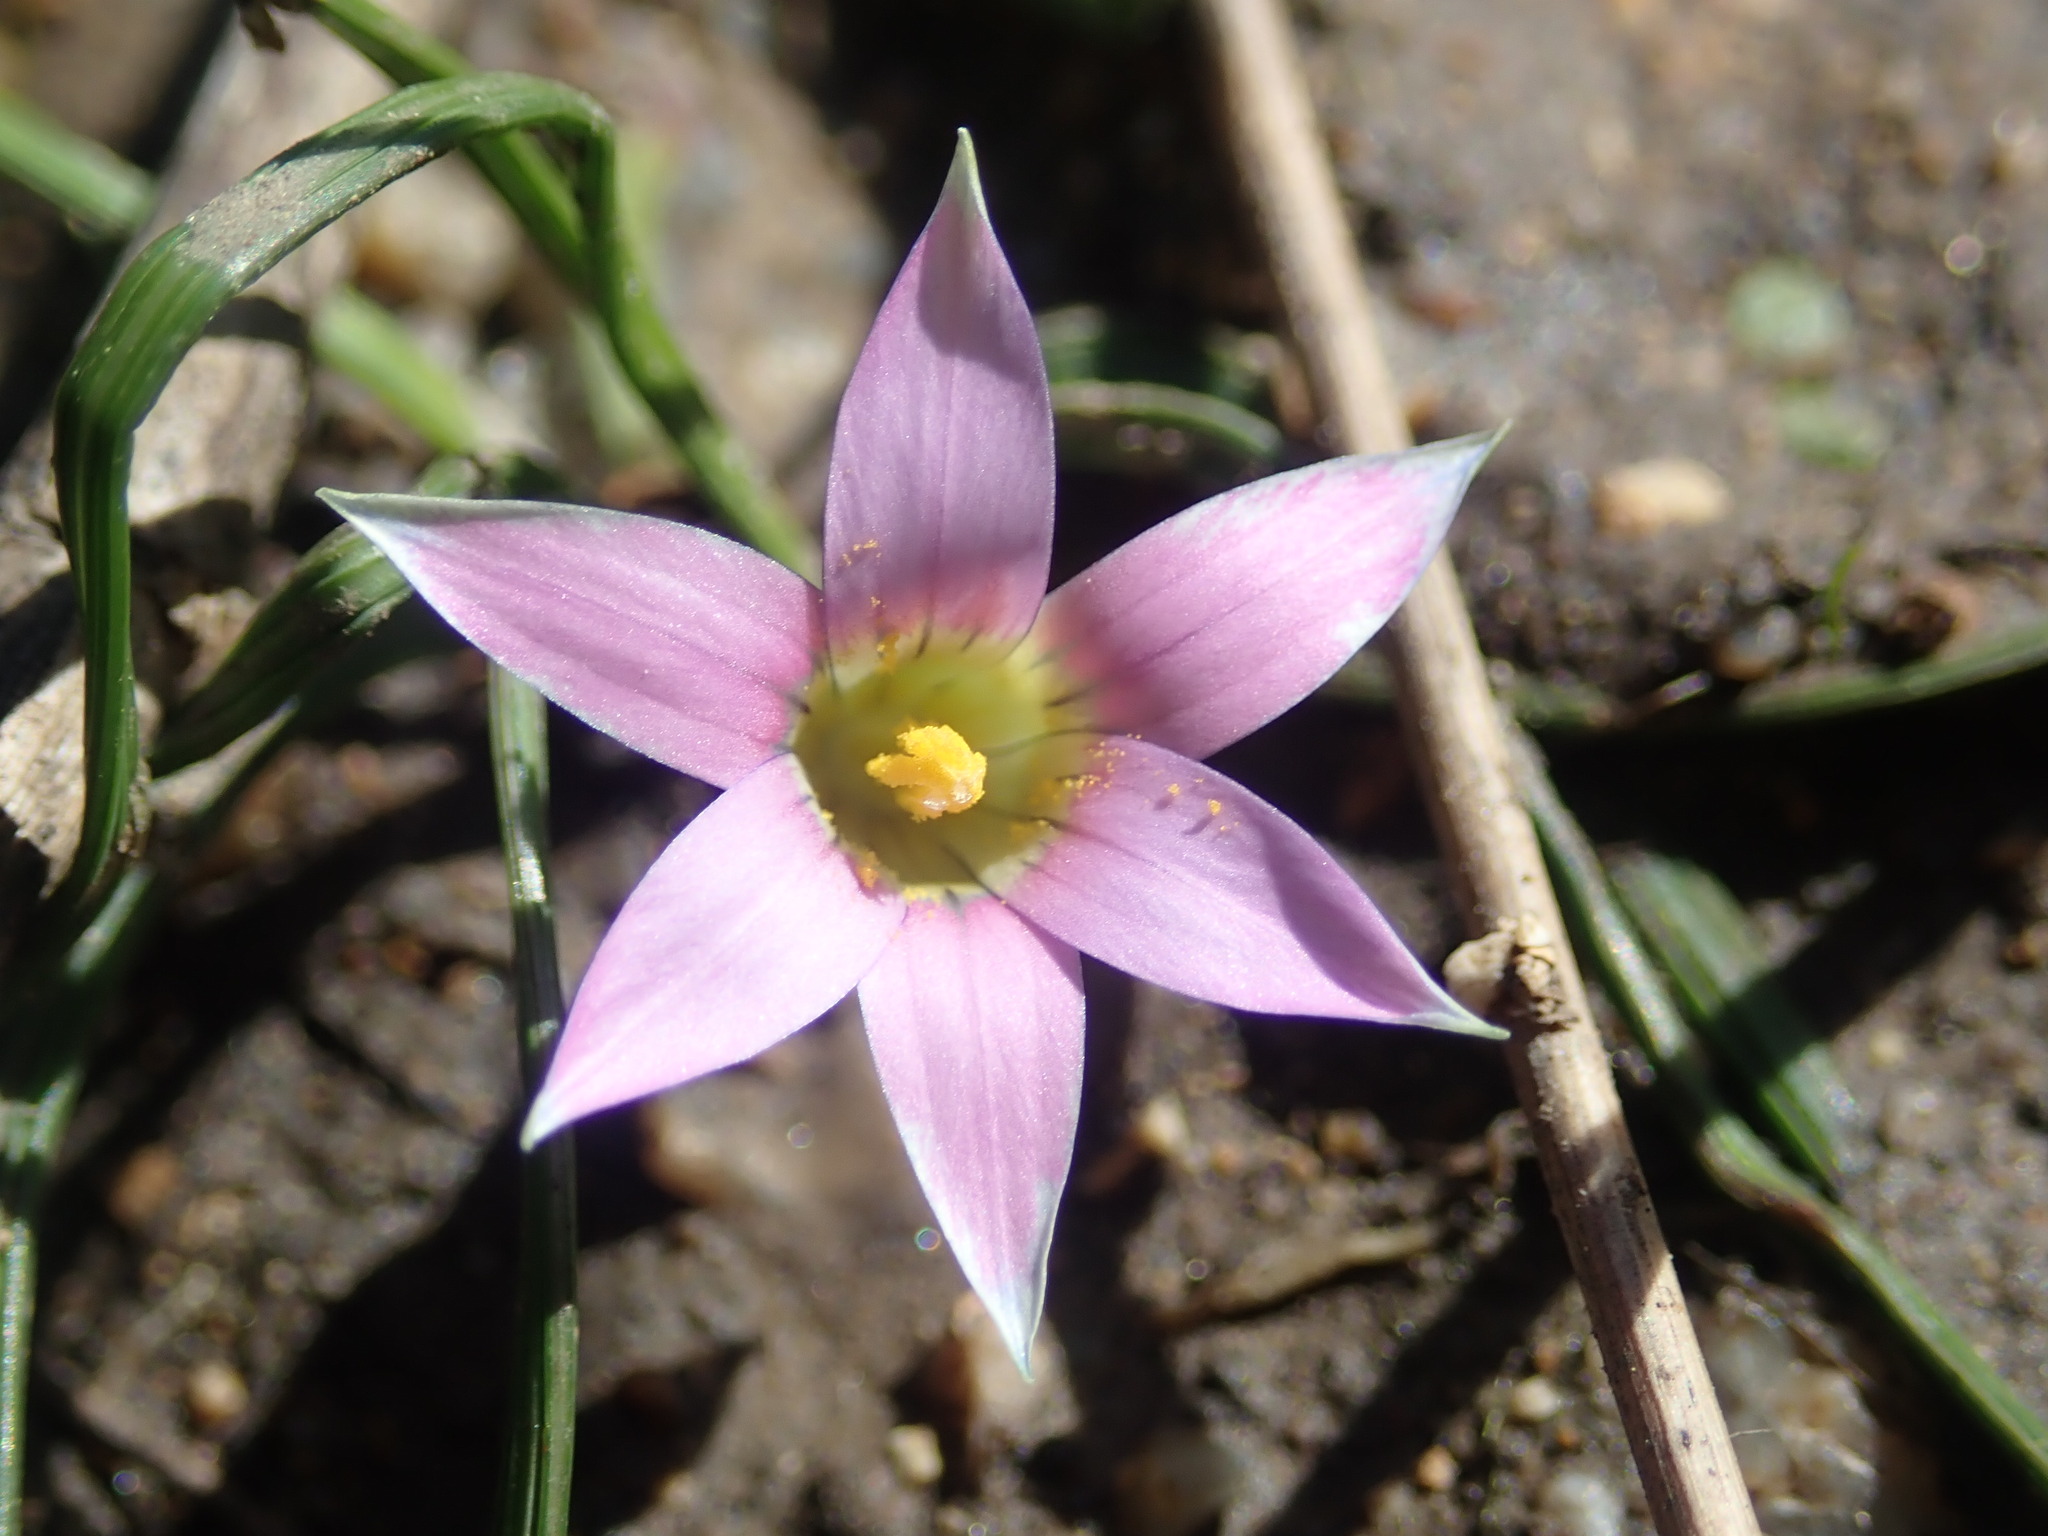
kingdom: Plantae
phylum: Tracheophyta
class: Liliopsida
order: Asparagales
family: Iridaceae
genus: Romulea
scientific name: Romulea rosea
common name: Oniongrass
